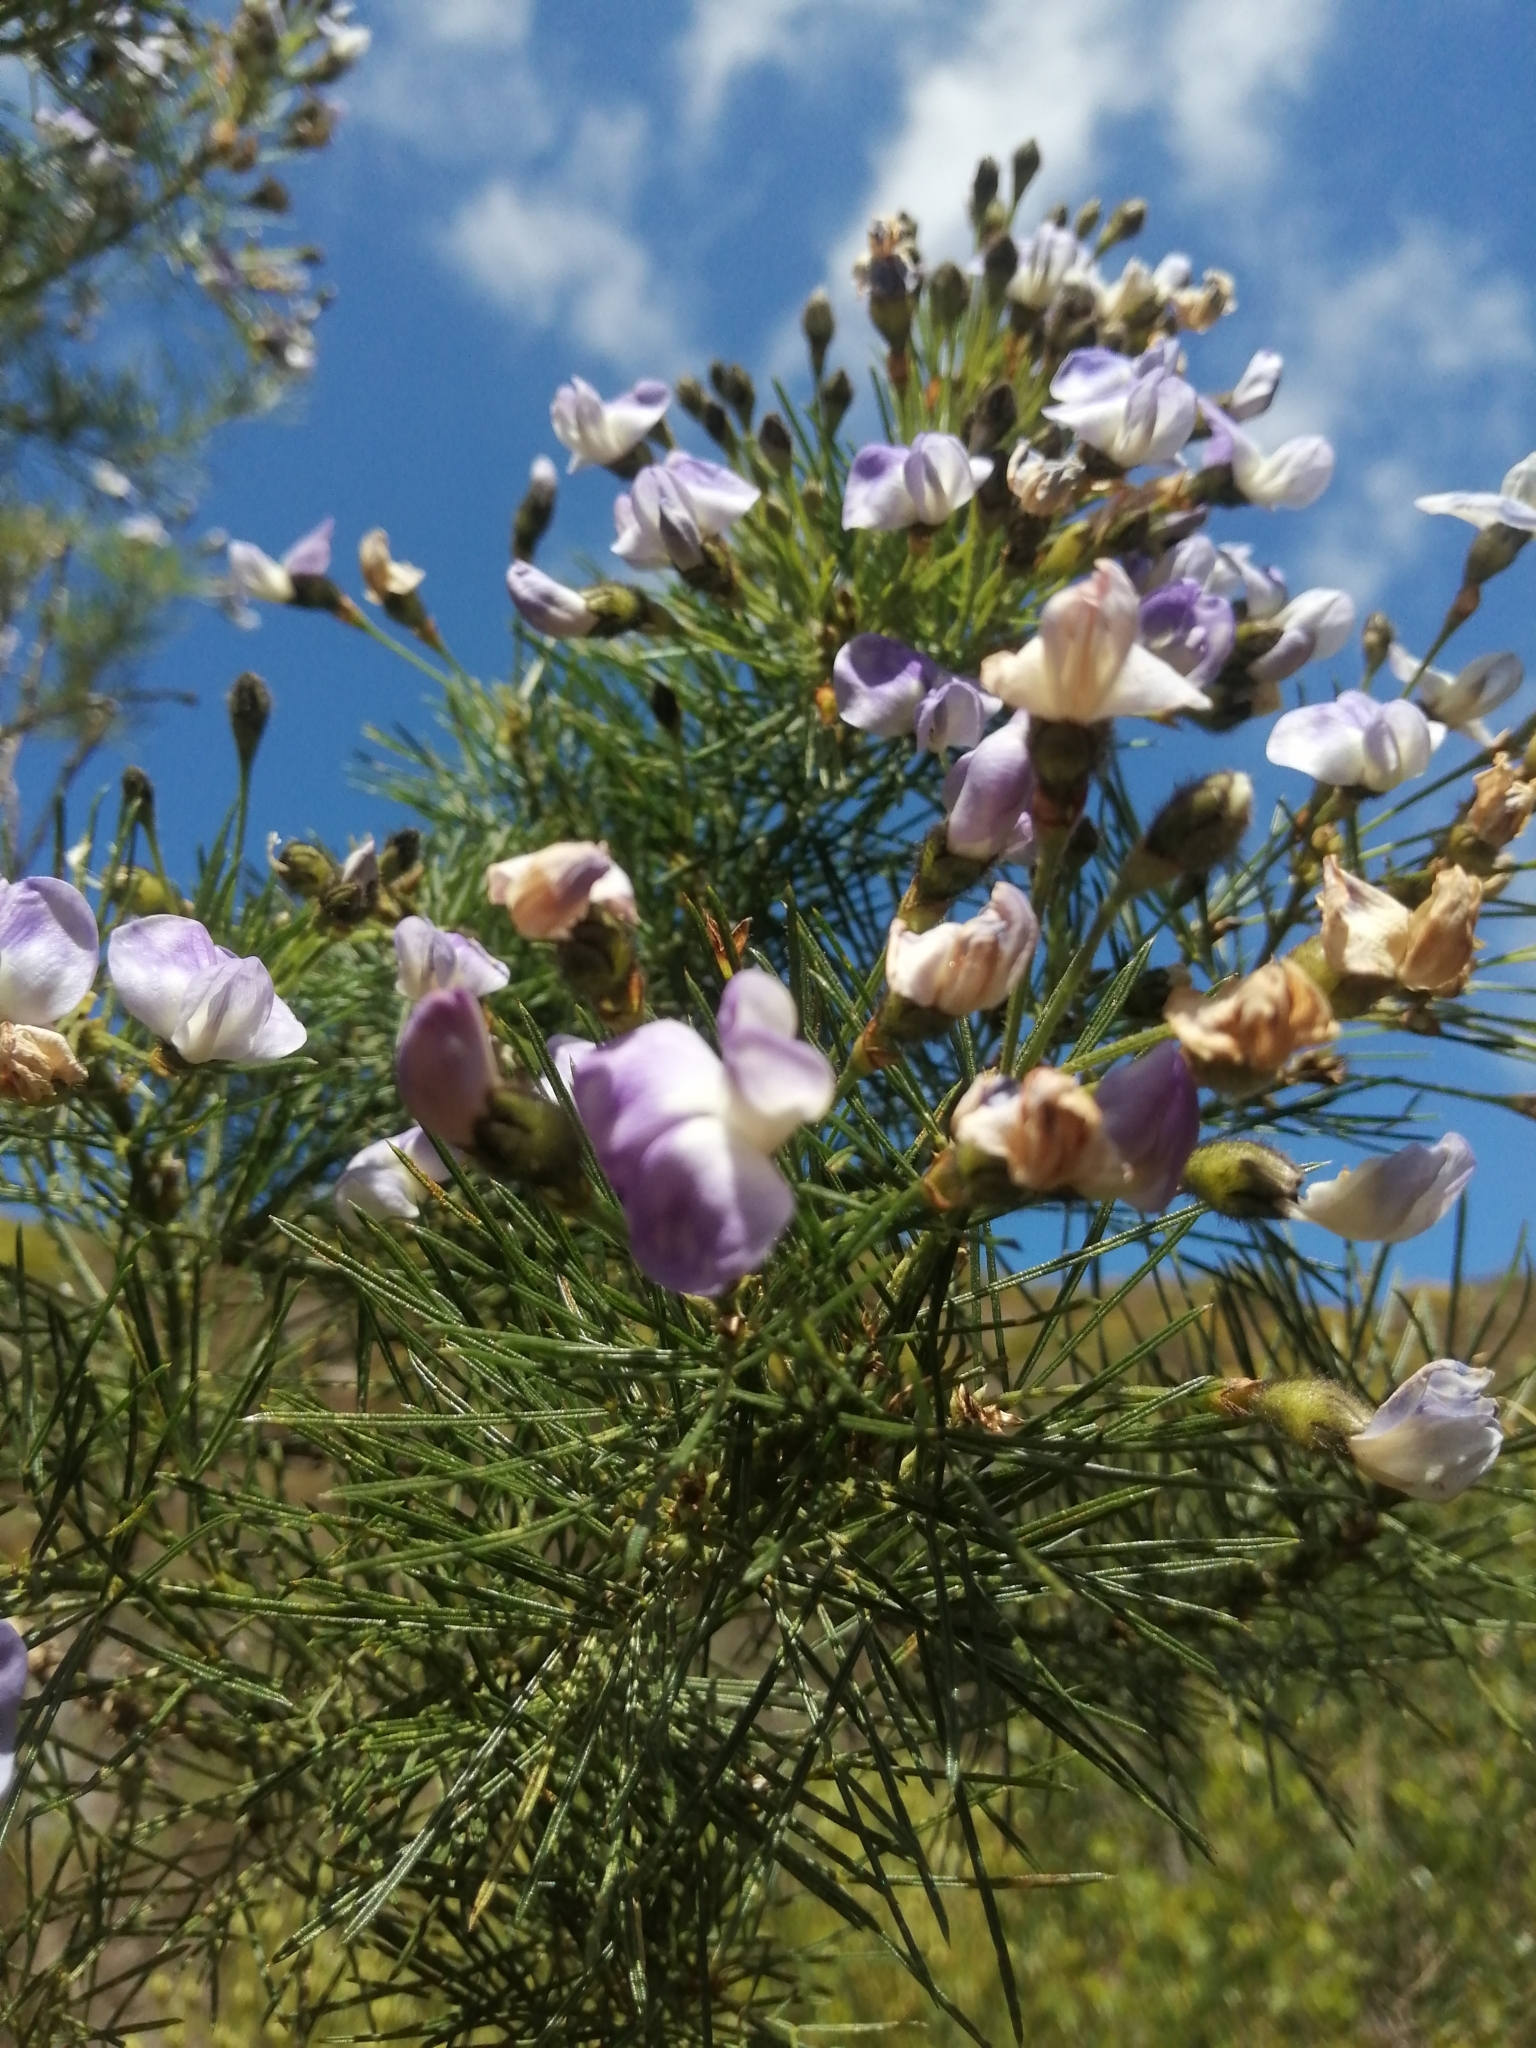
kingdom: Plantae
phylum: Tracheophyta
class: Magnoliopsida
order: Fabales
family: Fabaceae
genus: Psoralea
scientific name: Psoralea arborea
